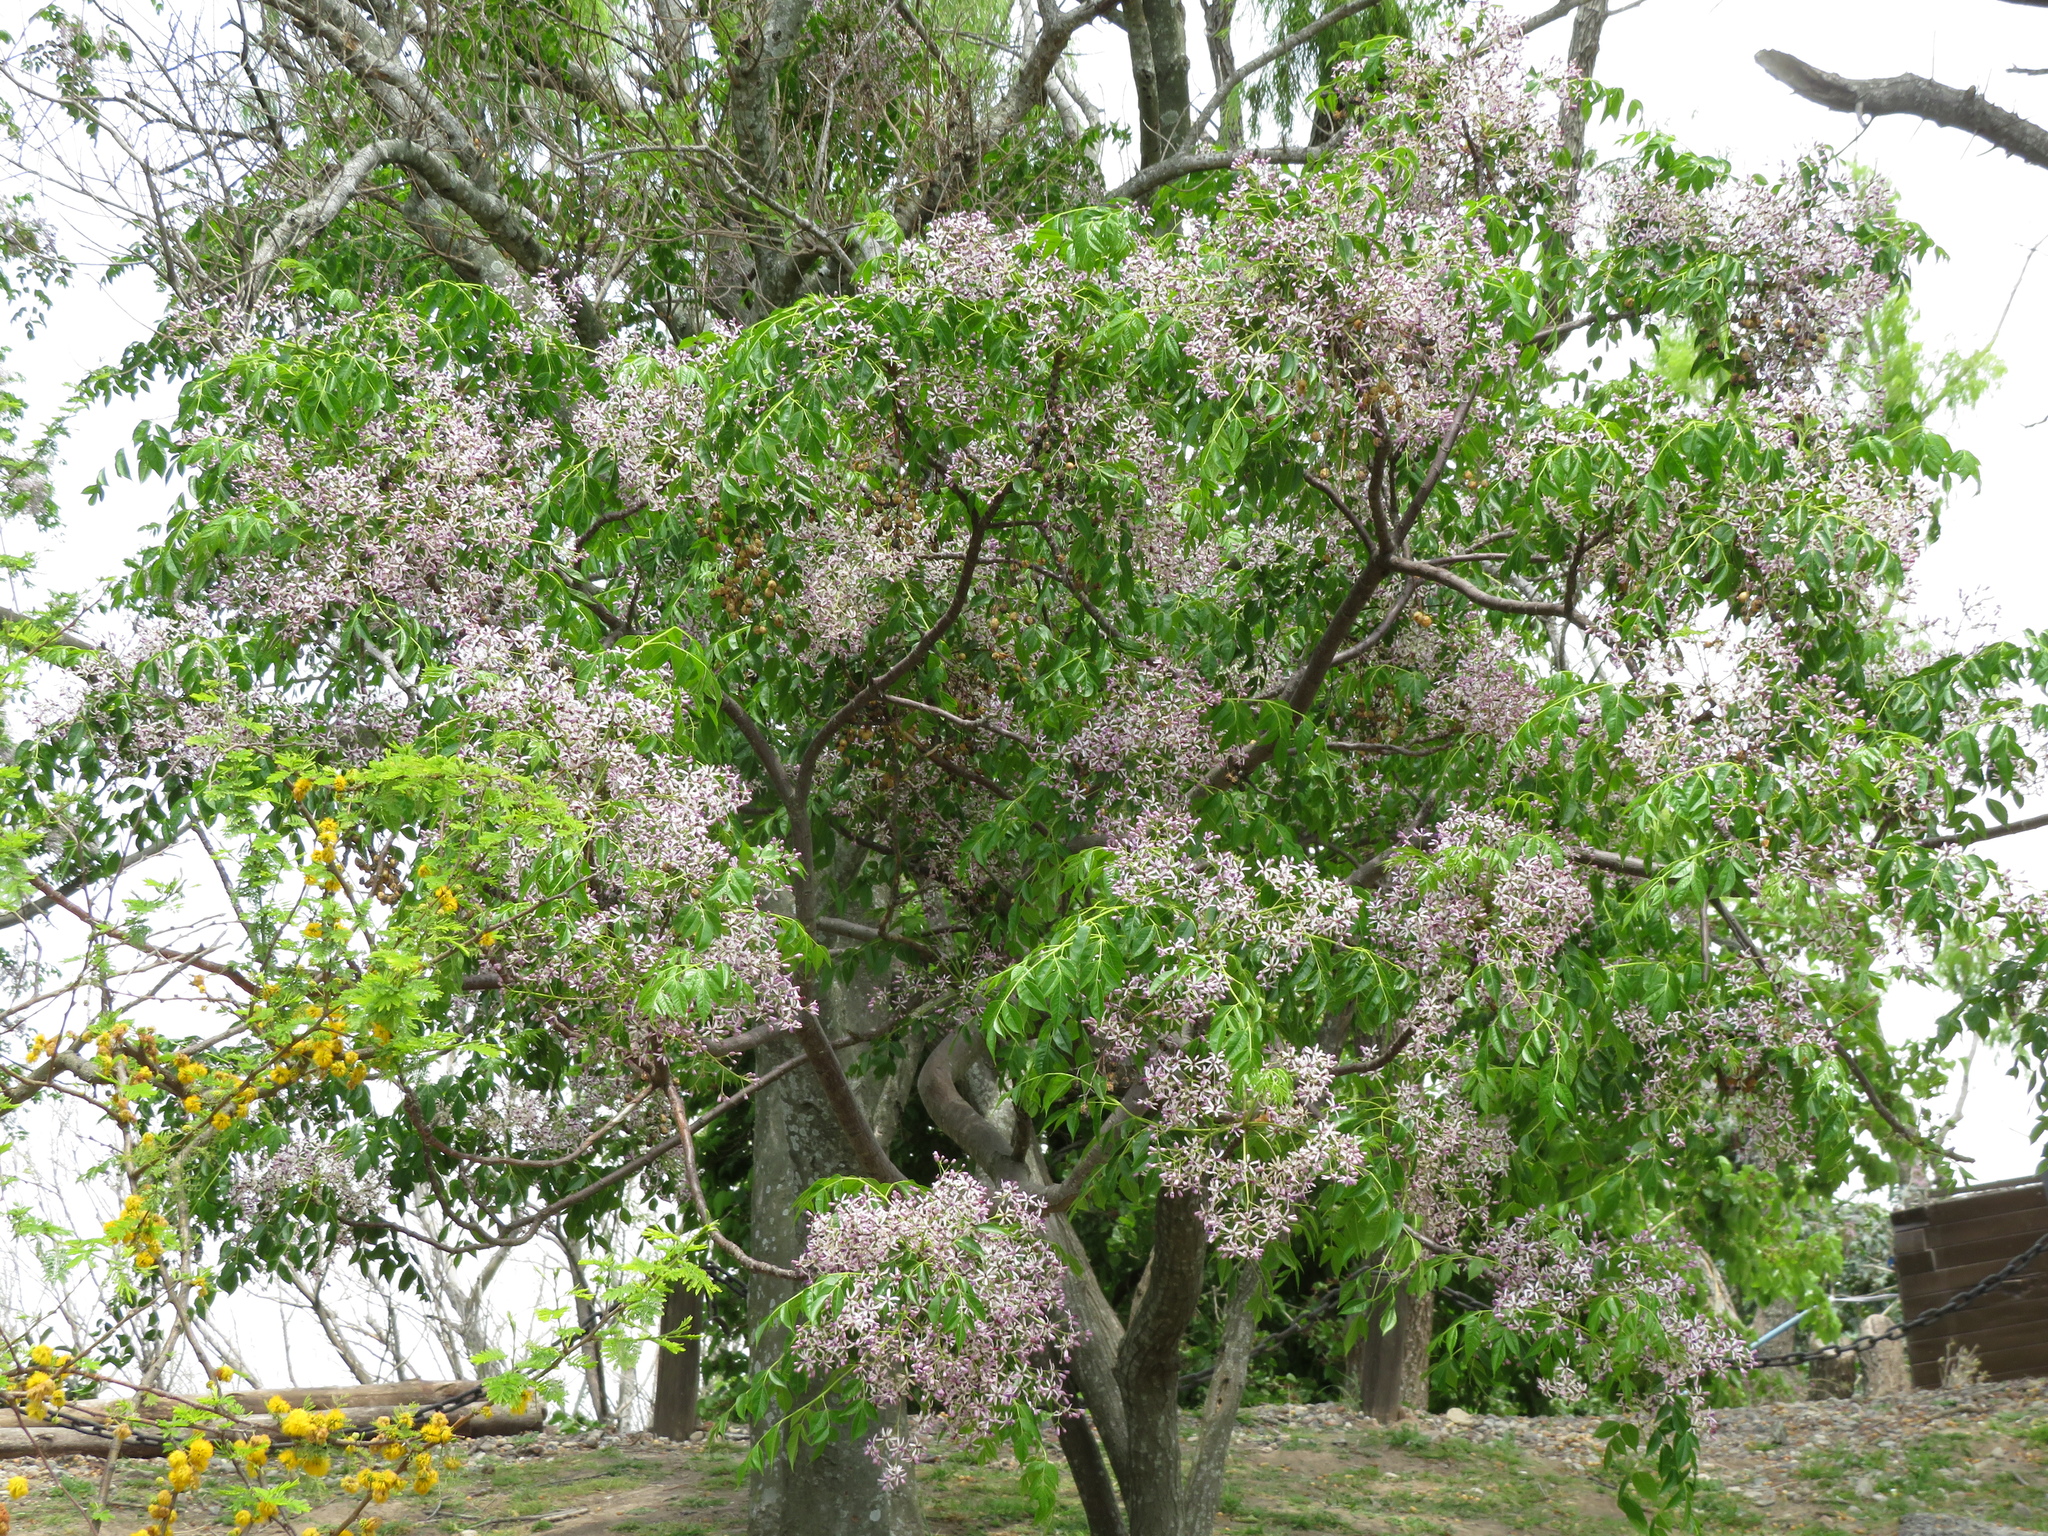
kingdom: Plantae
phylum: Tracheophyta
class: Magnoliopsida
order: Sapindales
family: Meliaceae
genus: Melia
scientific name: Melia azedarach
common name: Chinaberrytree
